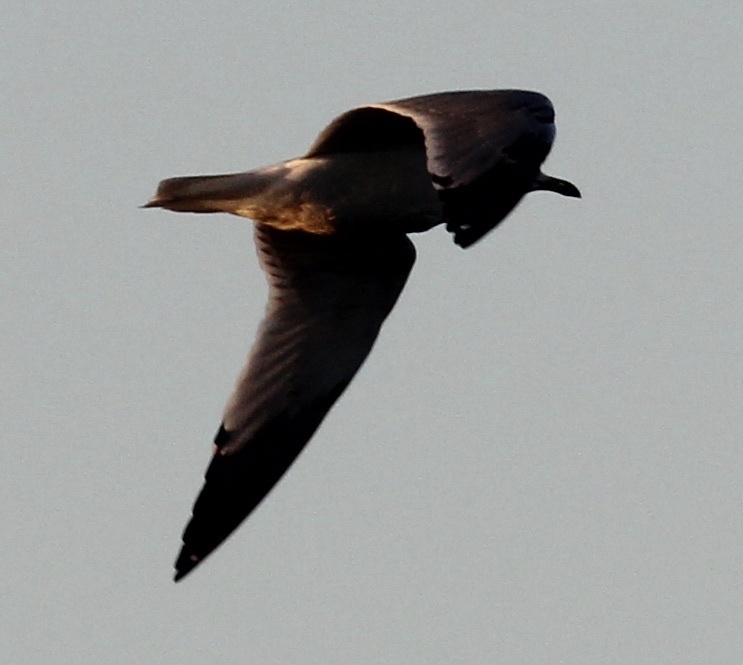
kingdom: Animalia
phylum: Chordata
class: Aves
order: Charadriiformes
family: Laridae
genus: Larus
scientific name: Larus
